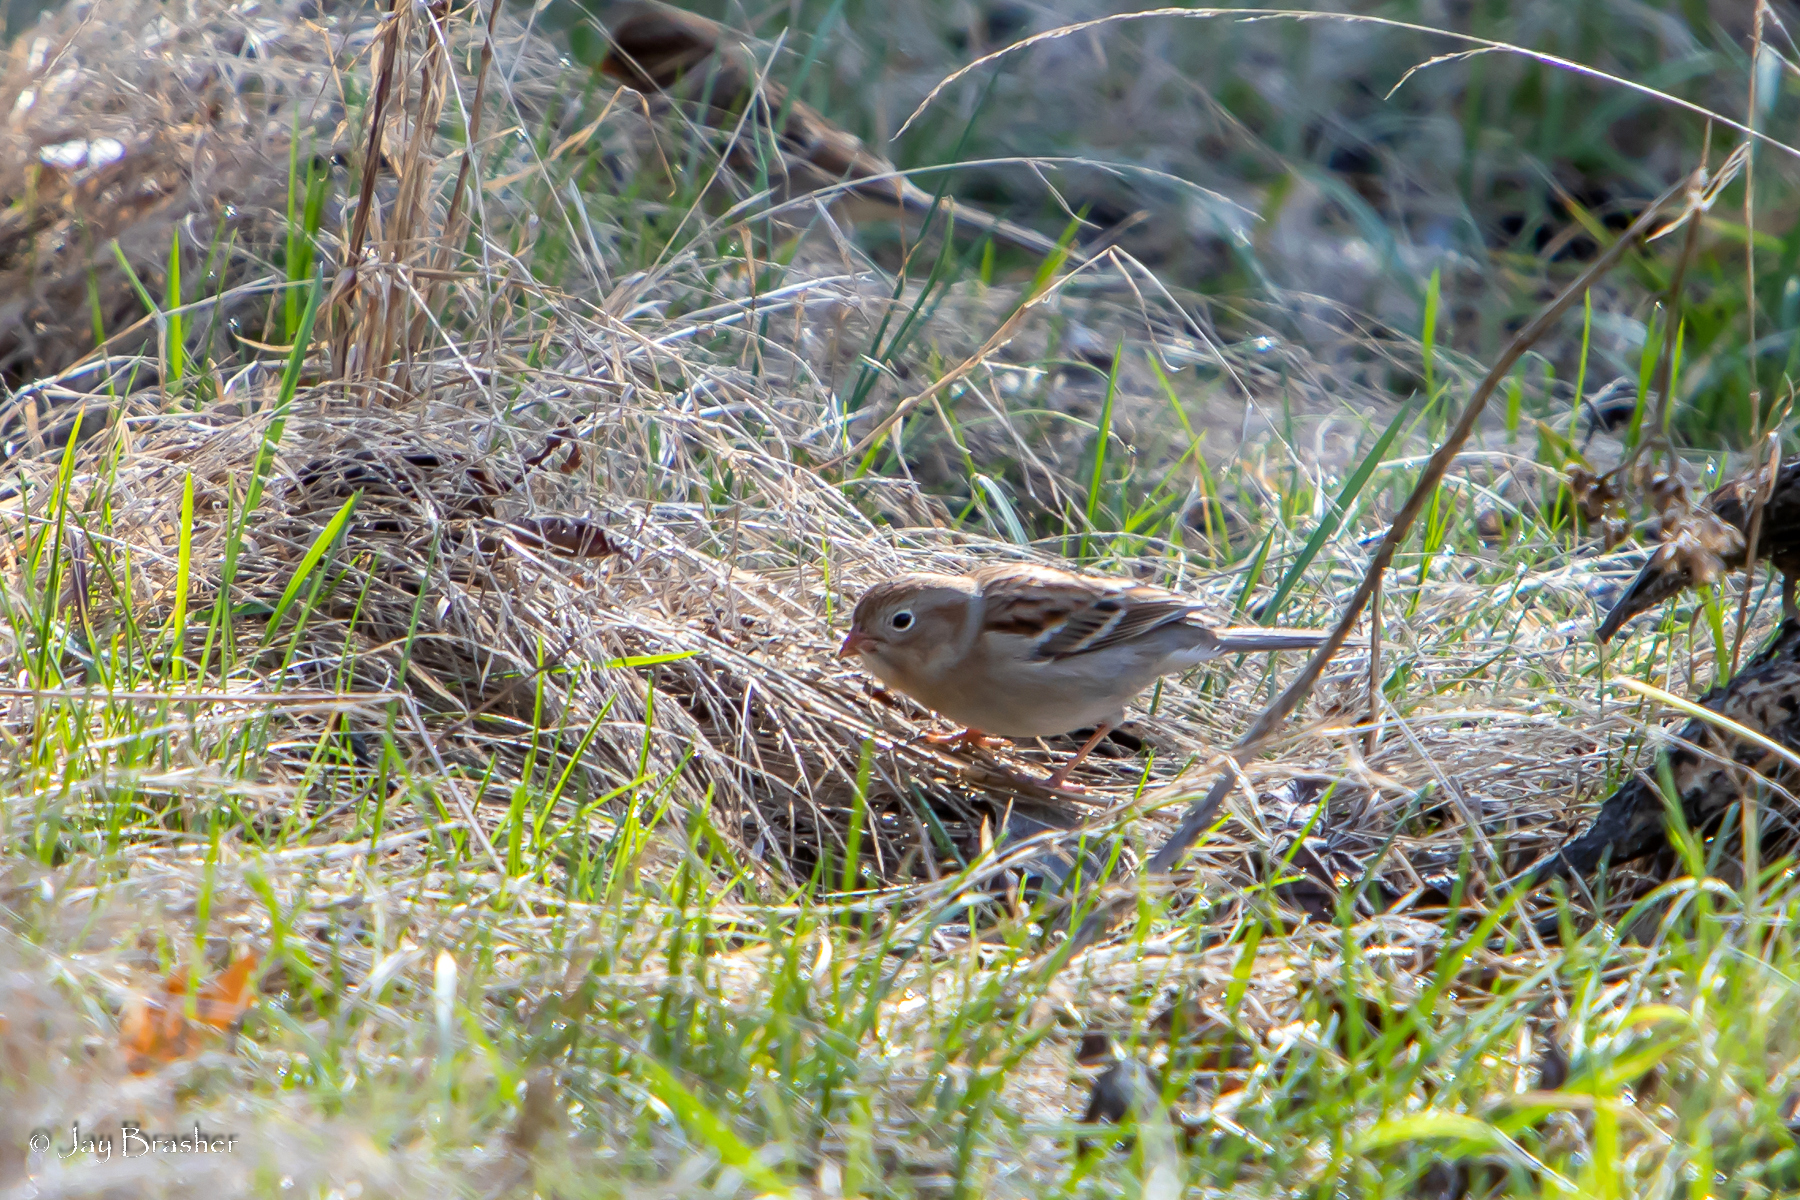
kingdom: Animalia
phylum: Chordata
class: Aves
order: Passeriformes
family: Passerellidae
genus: Spizella
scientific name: Spizella pusilla
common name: Field sparrow
